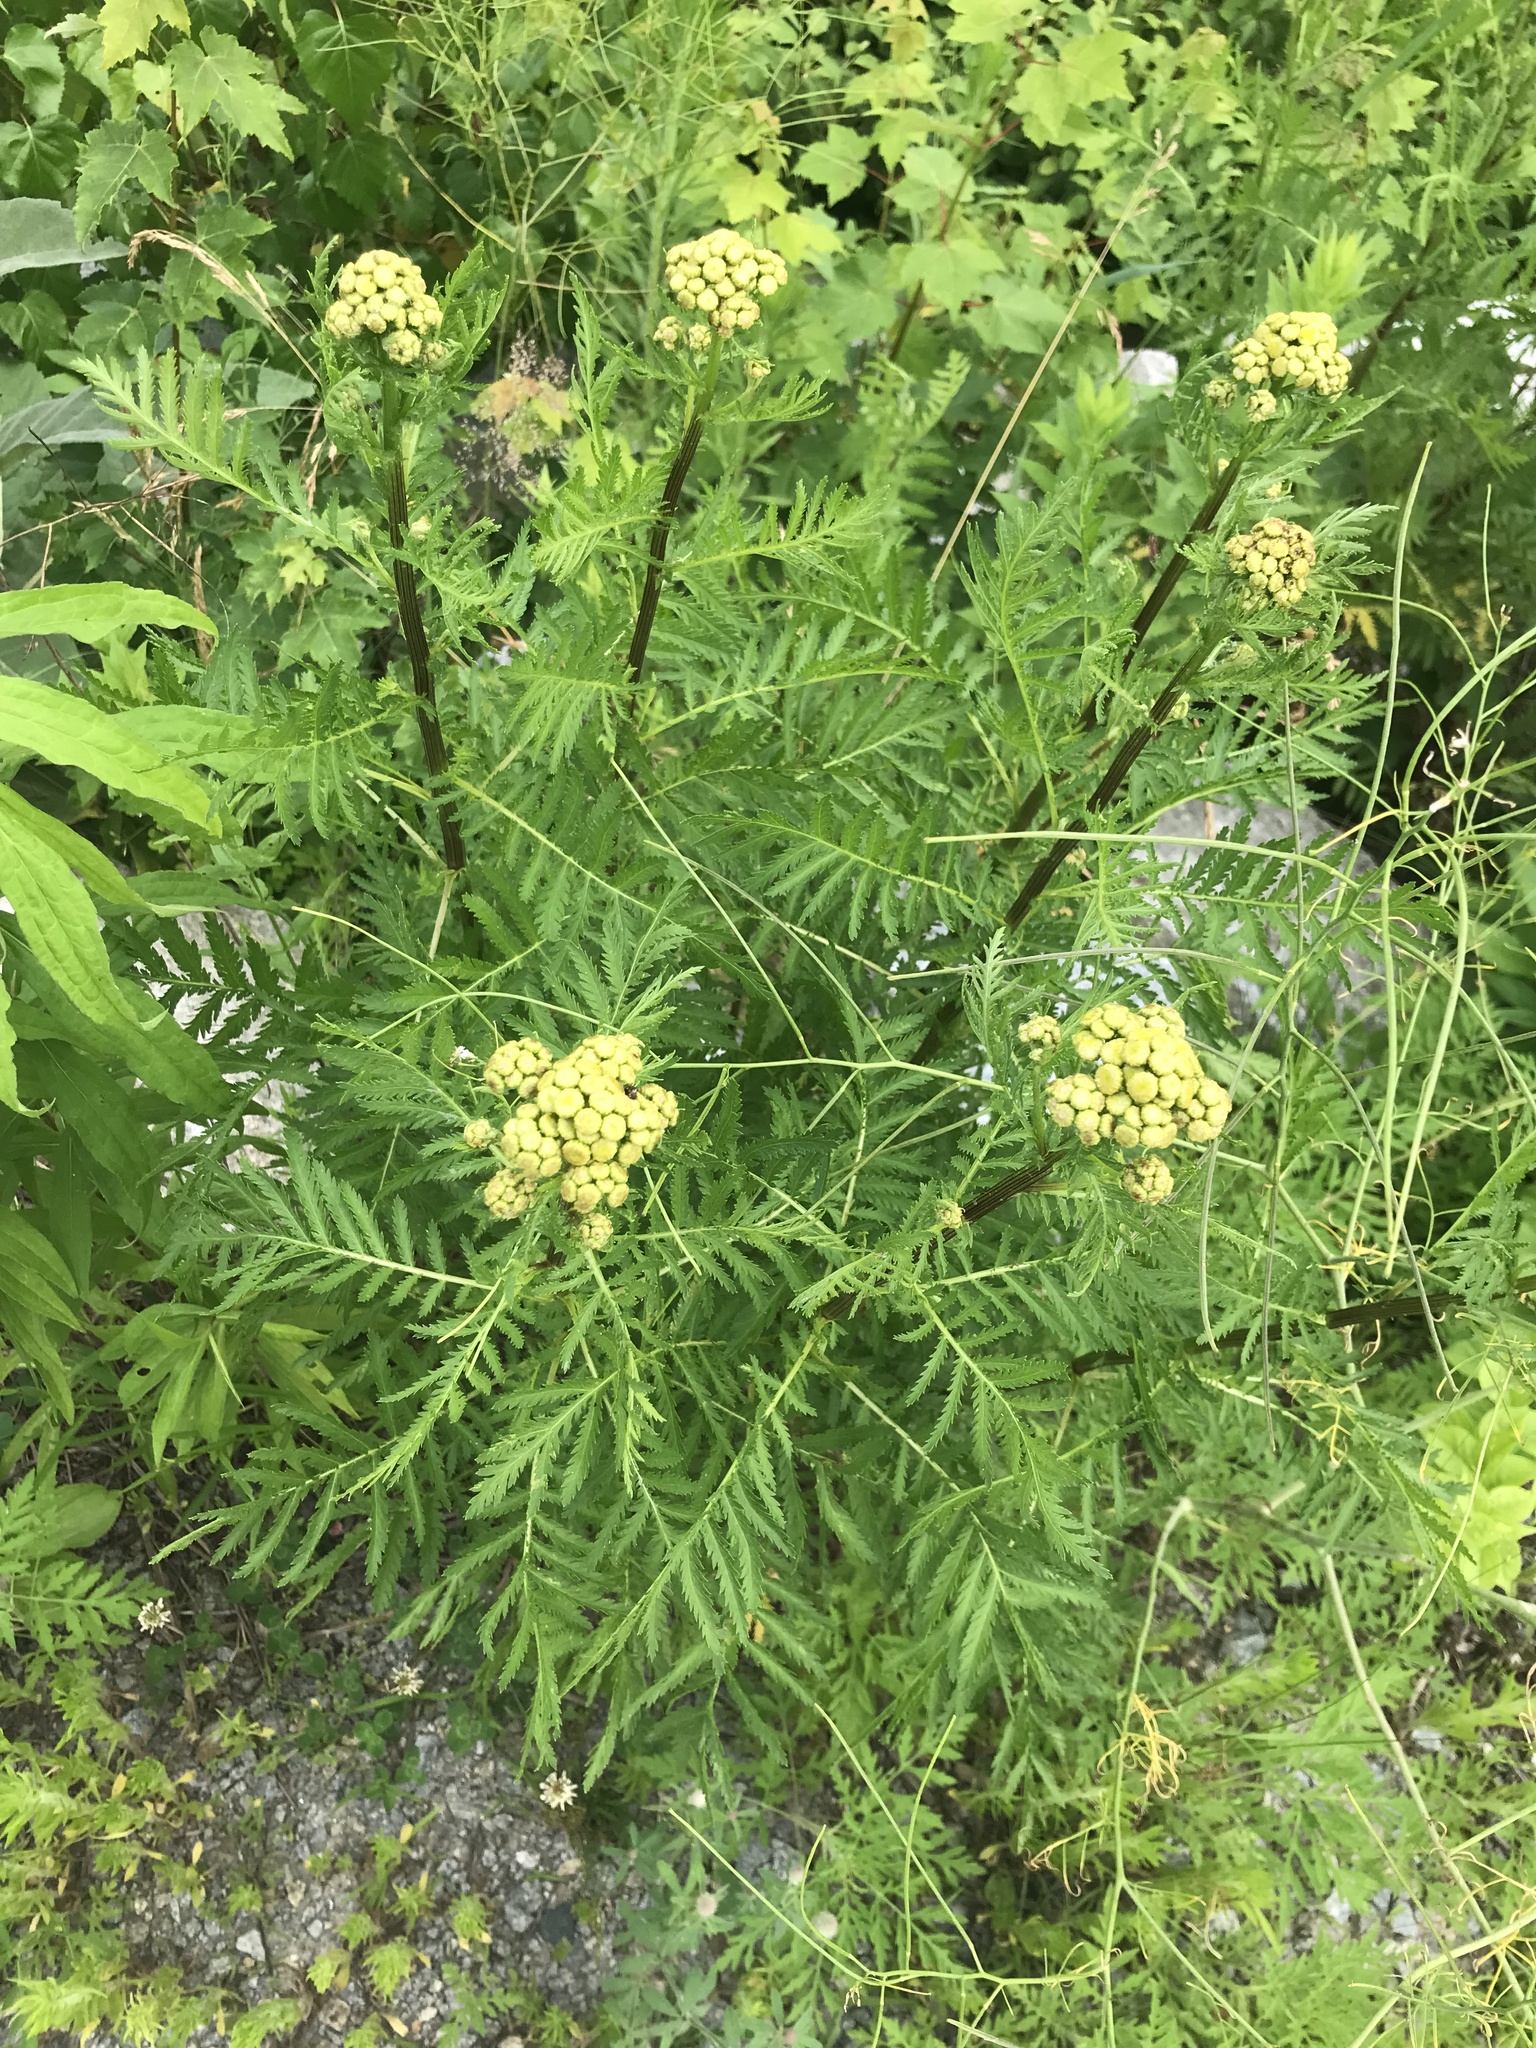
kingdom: Plantae
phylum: Tracheophyta
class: Magnoliopsida
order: Asterales
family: Asteraceae
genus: Tanacetum
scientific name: Tanacetum vulgare
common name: Common tansy
